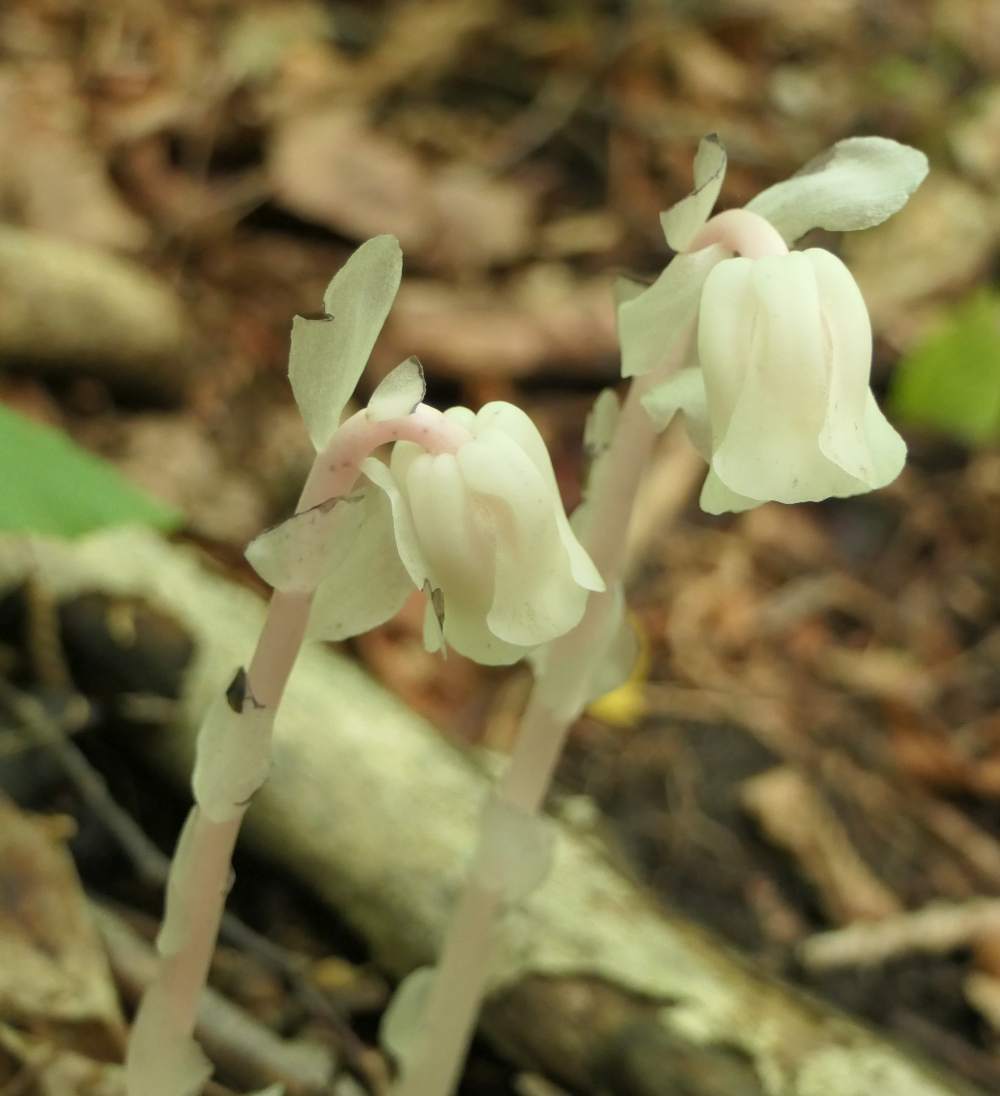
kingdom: Plantae
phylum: Tracheophyta
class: Magnoliopsida
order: Ericales
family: Ericaceae
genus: Monotropa
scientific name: Monotropa uniflora
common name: Convulsion root
